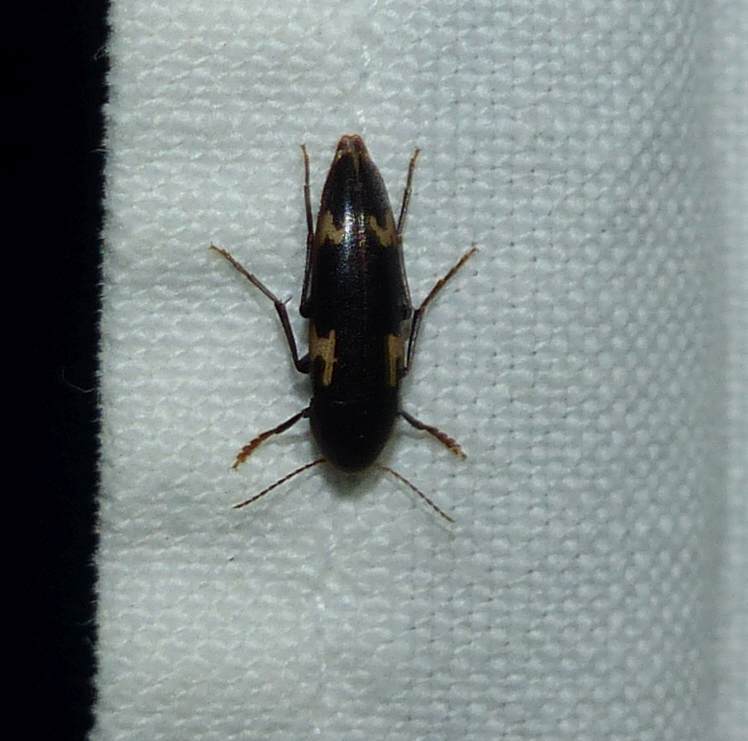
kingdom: Animalia
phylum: Arthropoda
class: Insecta
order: Coleoptera
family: Melandryidae
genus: Dircaea
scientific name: Dircaea liturata
